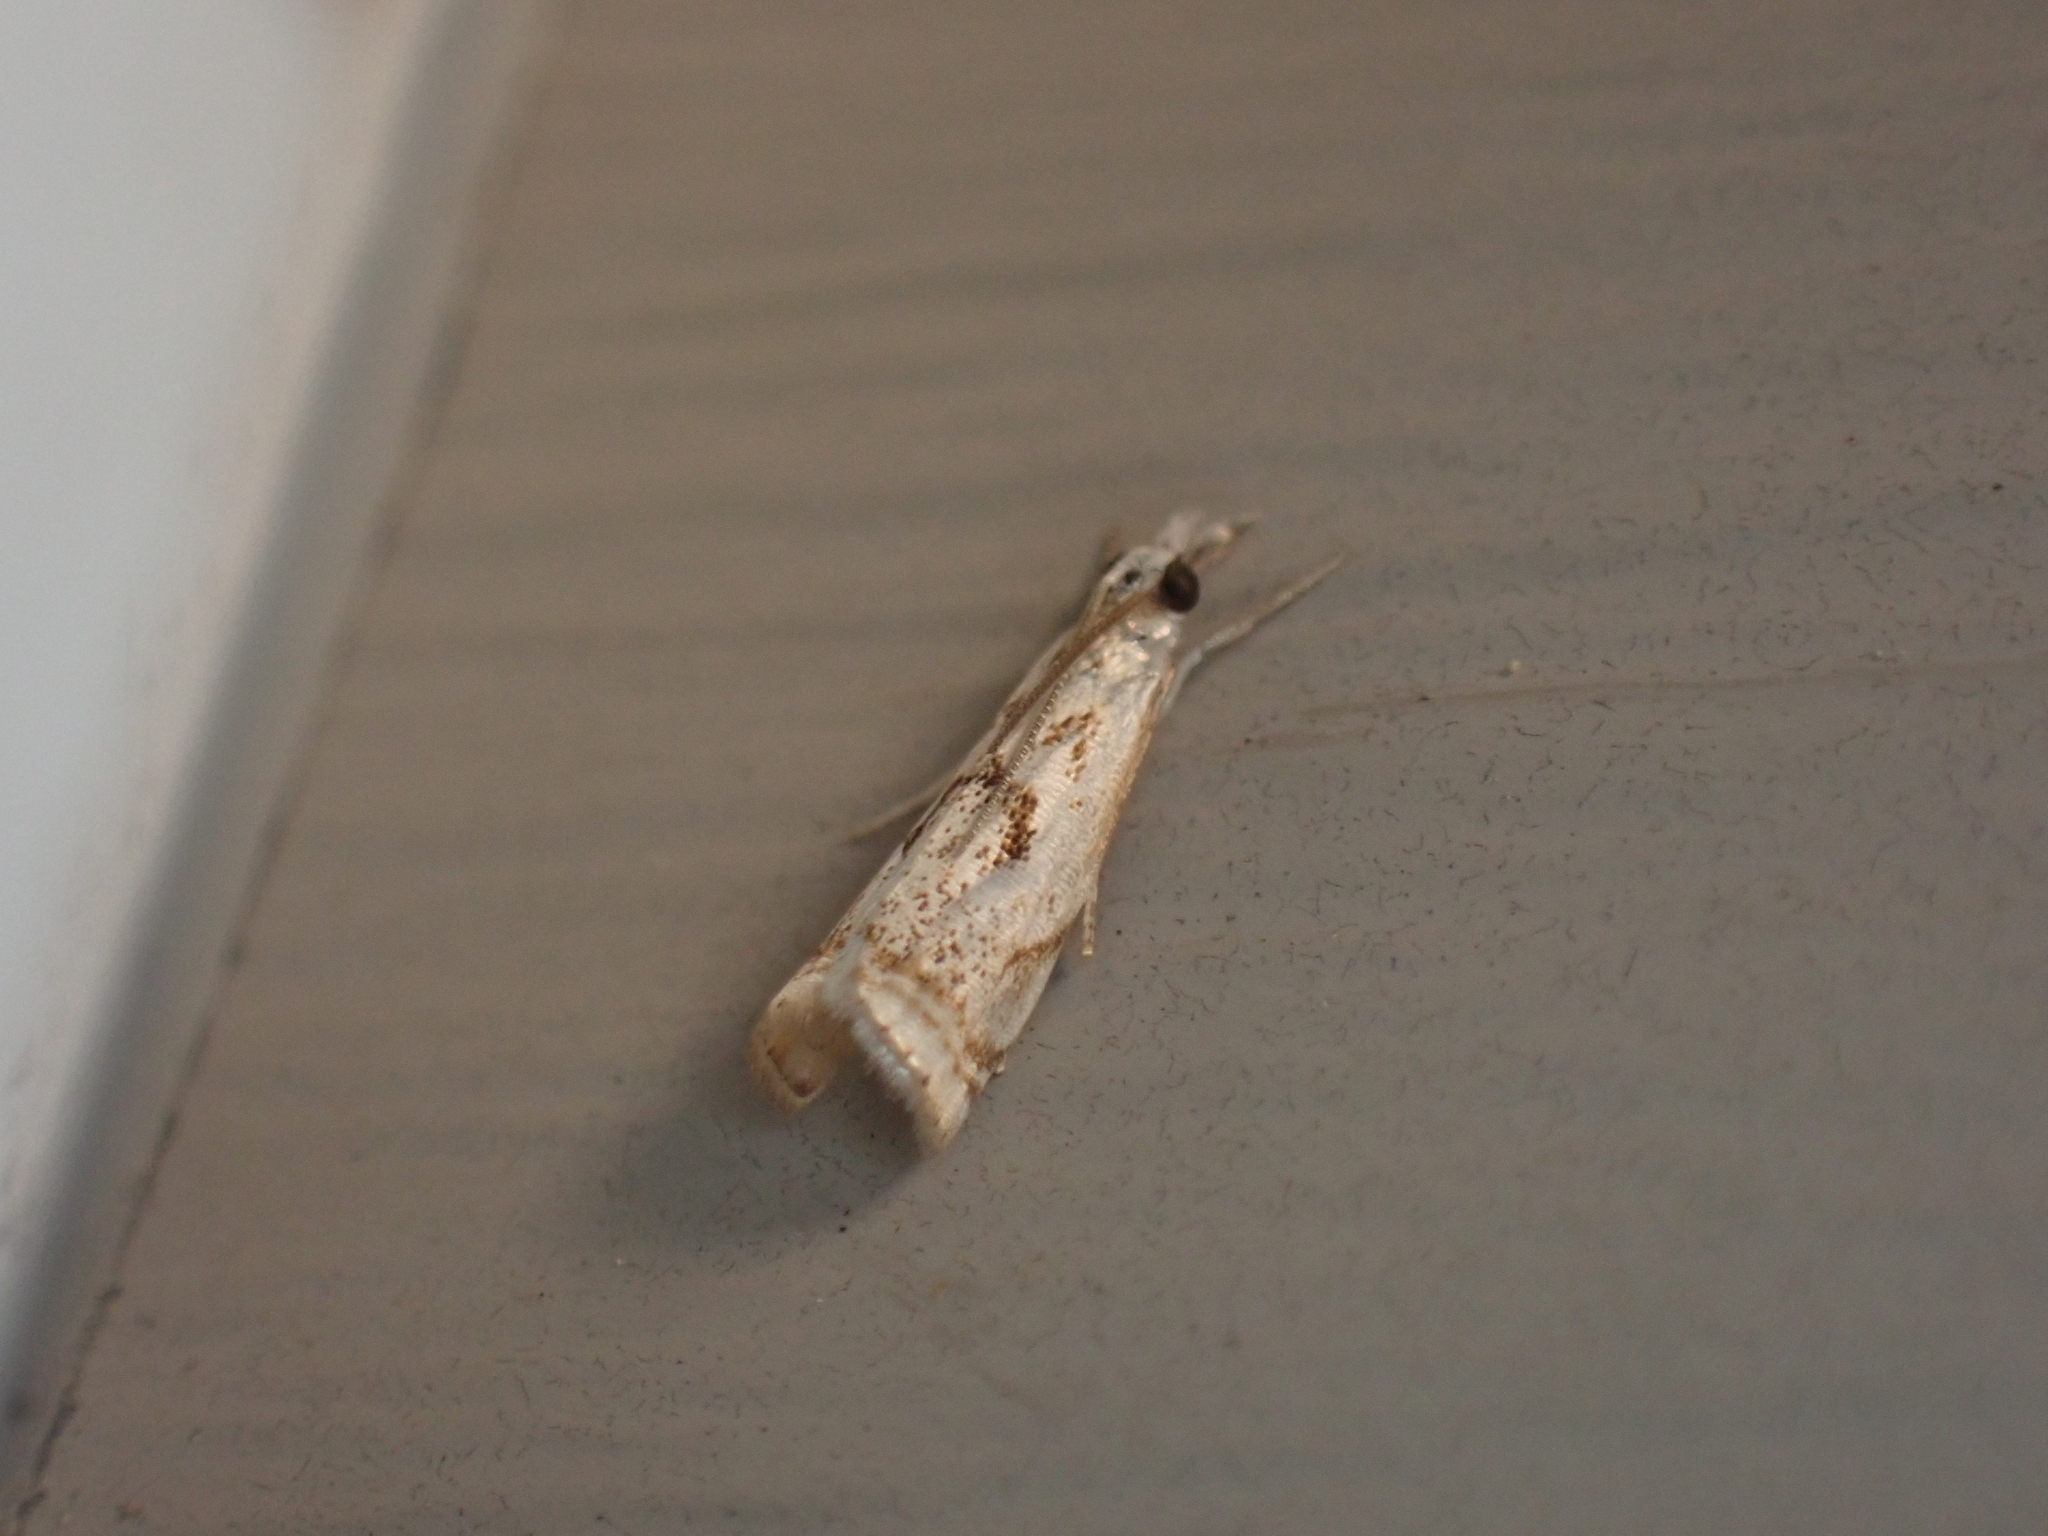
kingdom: Animalia
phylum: Arthropoda
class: Insecta
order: Lepidoptera
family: Crambidae
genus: Microcrambus
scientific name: Microcrambus elegans
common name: Elegant grass-veneer
